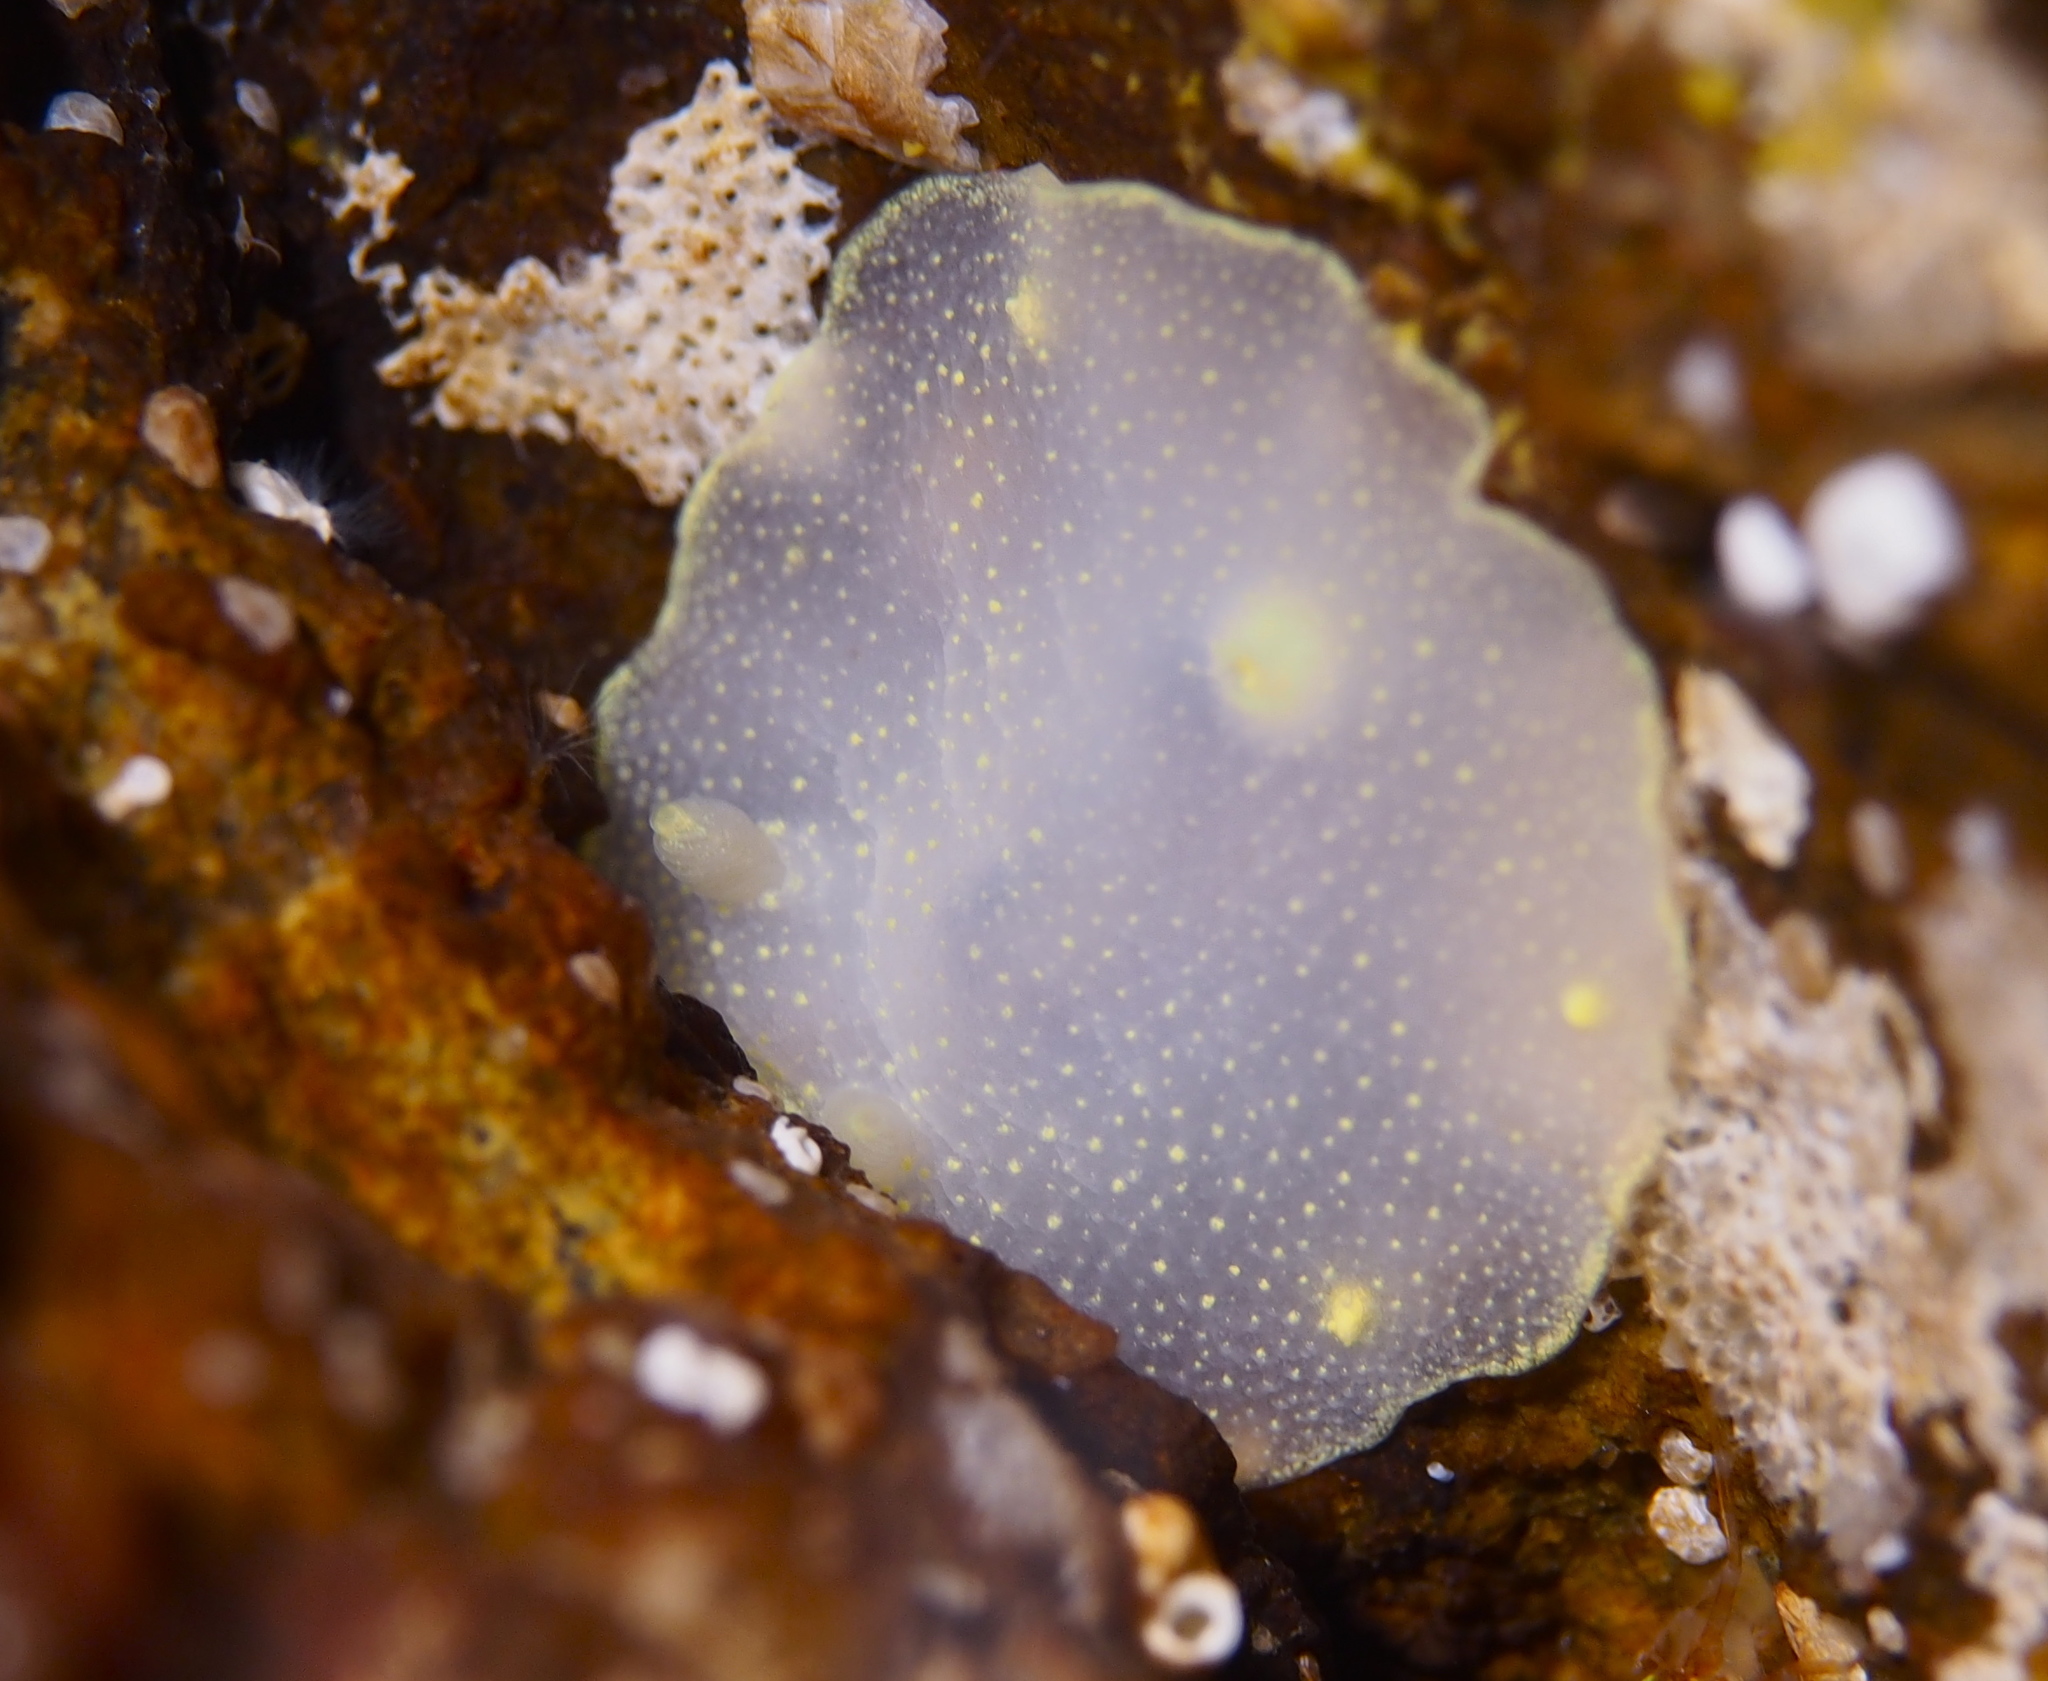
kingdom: Animalia
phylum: Mollusca
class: Gastropoda
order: Nudibranchia
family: Cadlinidae
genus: Cadlina
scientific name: Cadlina laevis
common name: White atlantic cadlina
